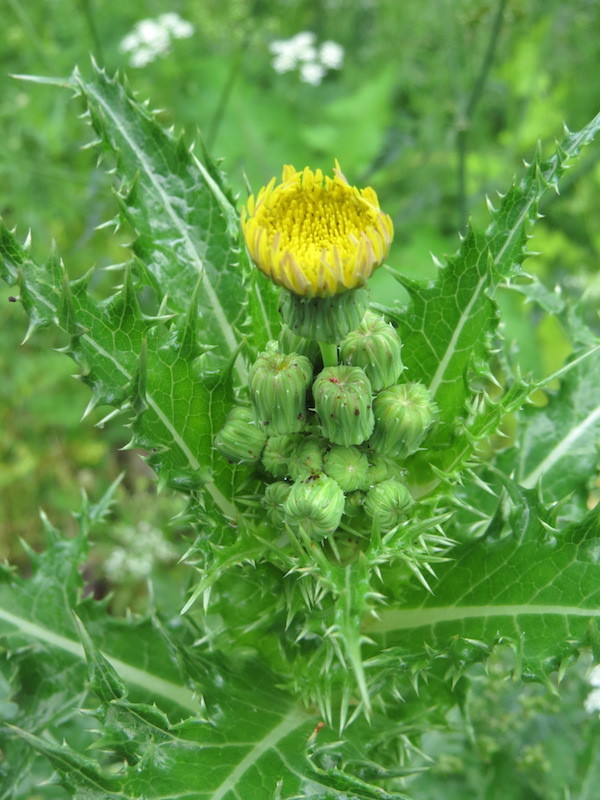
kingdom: Plantae
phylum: Tracheophyta
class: Magnoliopsida
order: Asterales
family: Asteraceae
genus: Sonchus
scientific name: Sonchus asper
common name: Prickly sow-thistle
